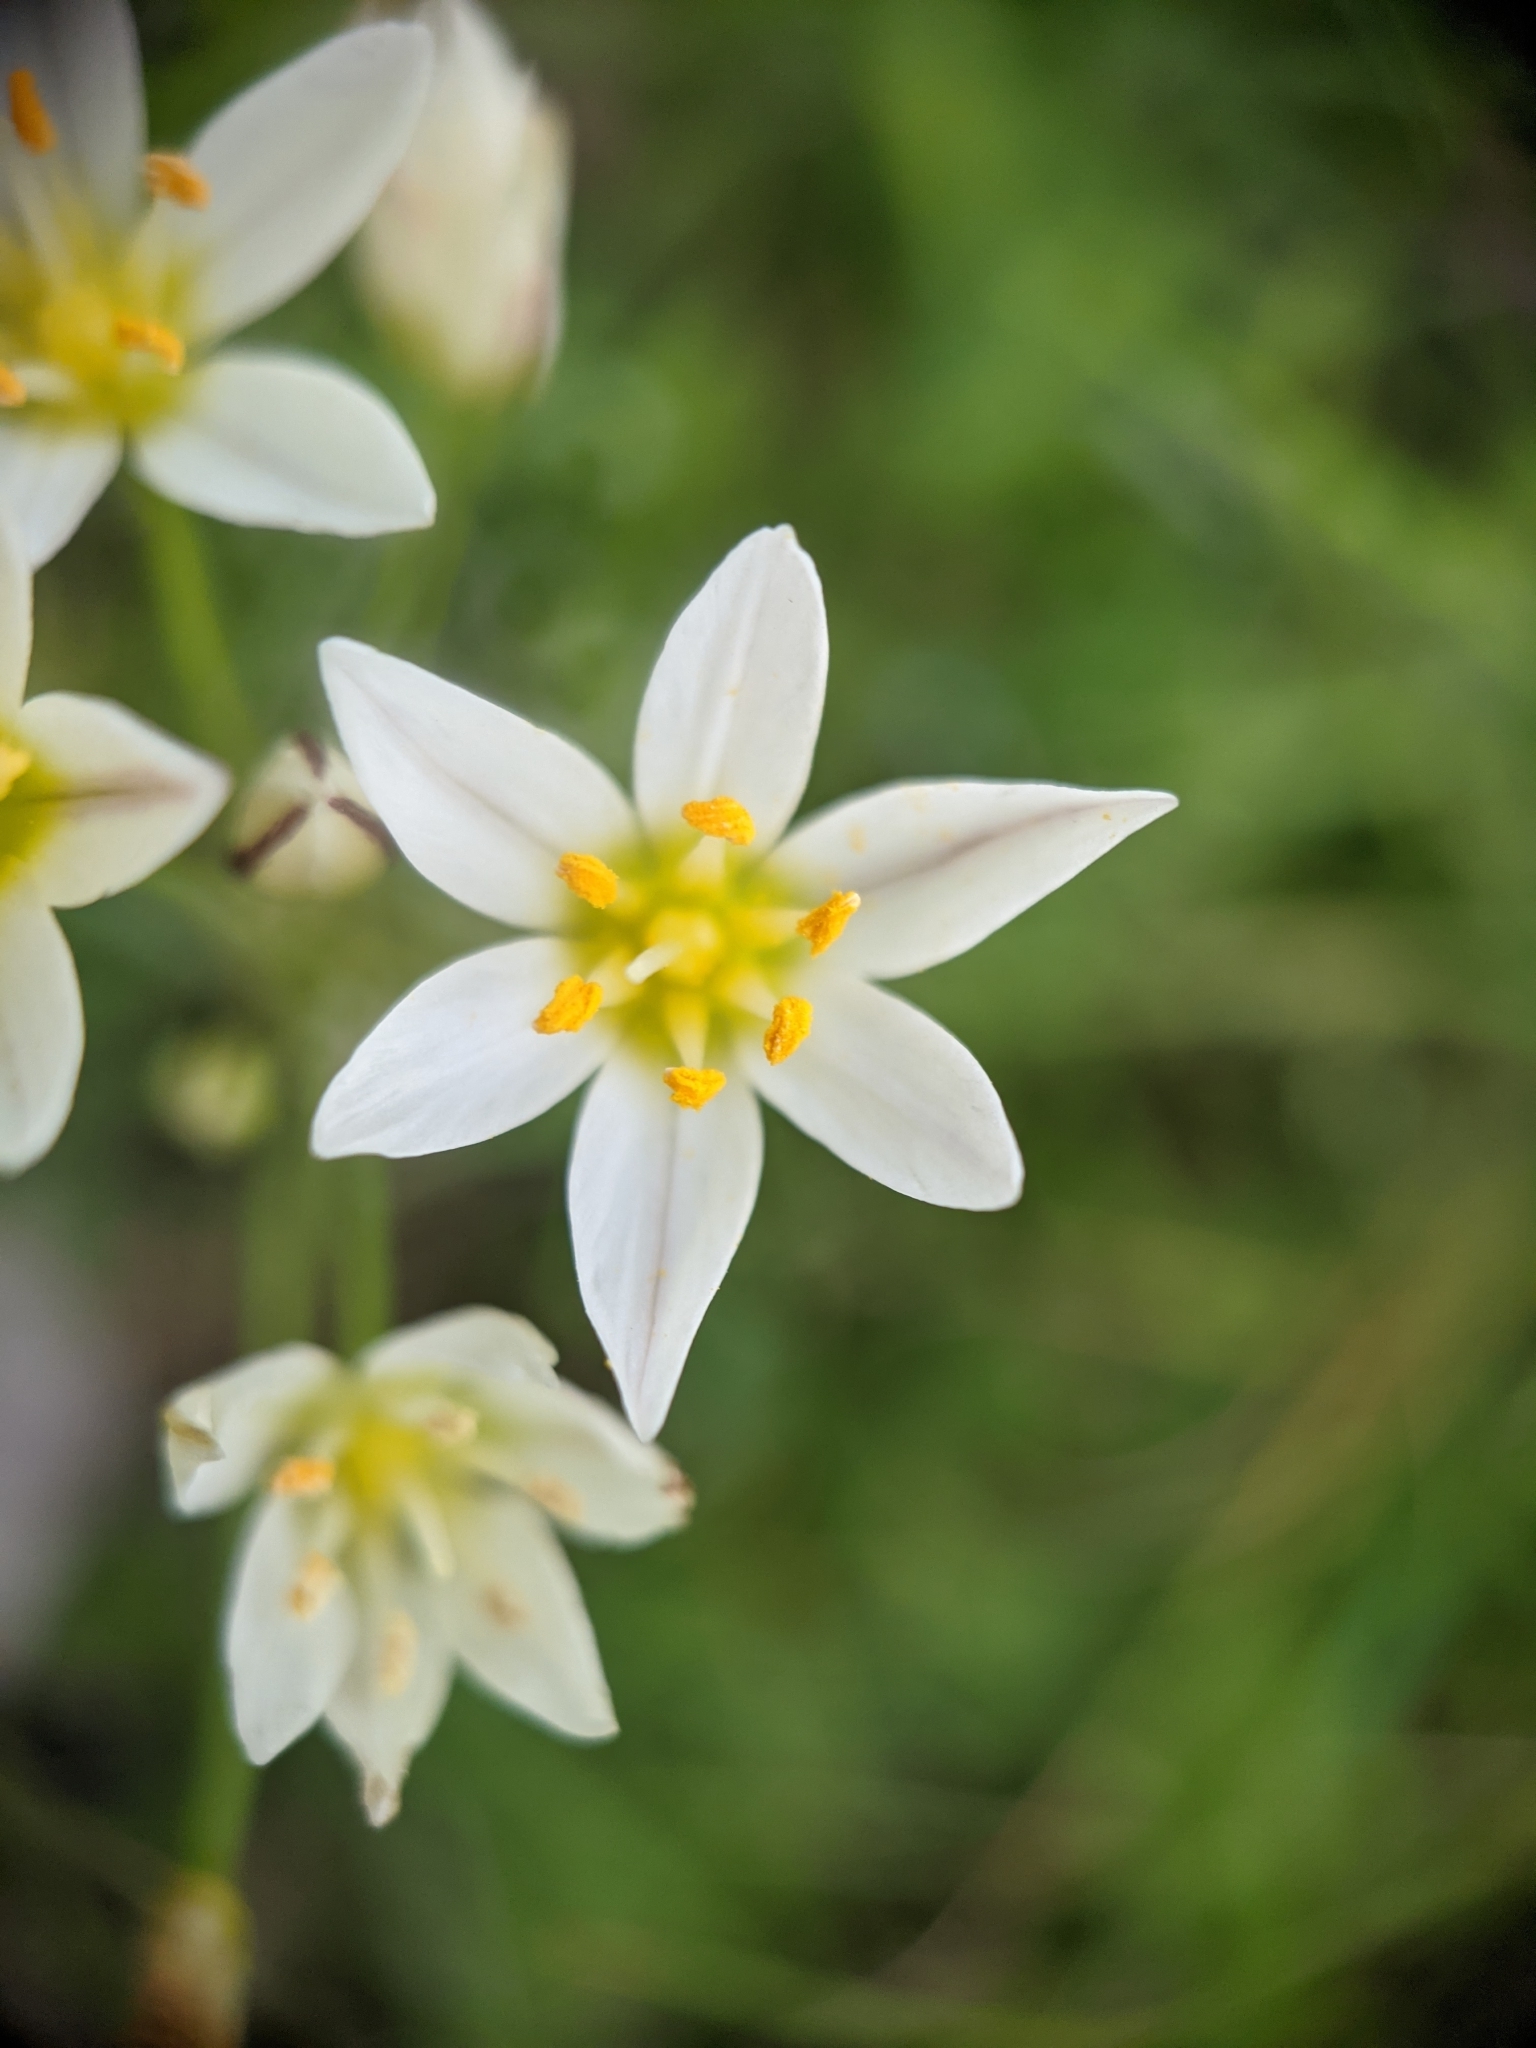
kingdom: Plantae
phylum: Tracheophyta
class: Liliopsida
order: Asparagales
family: Amaryllidaceae
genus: Nothoscordum
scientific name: Nothoscordum bivalve
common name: Crow-poison
